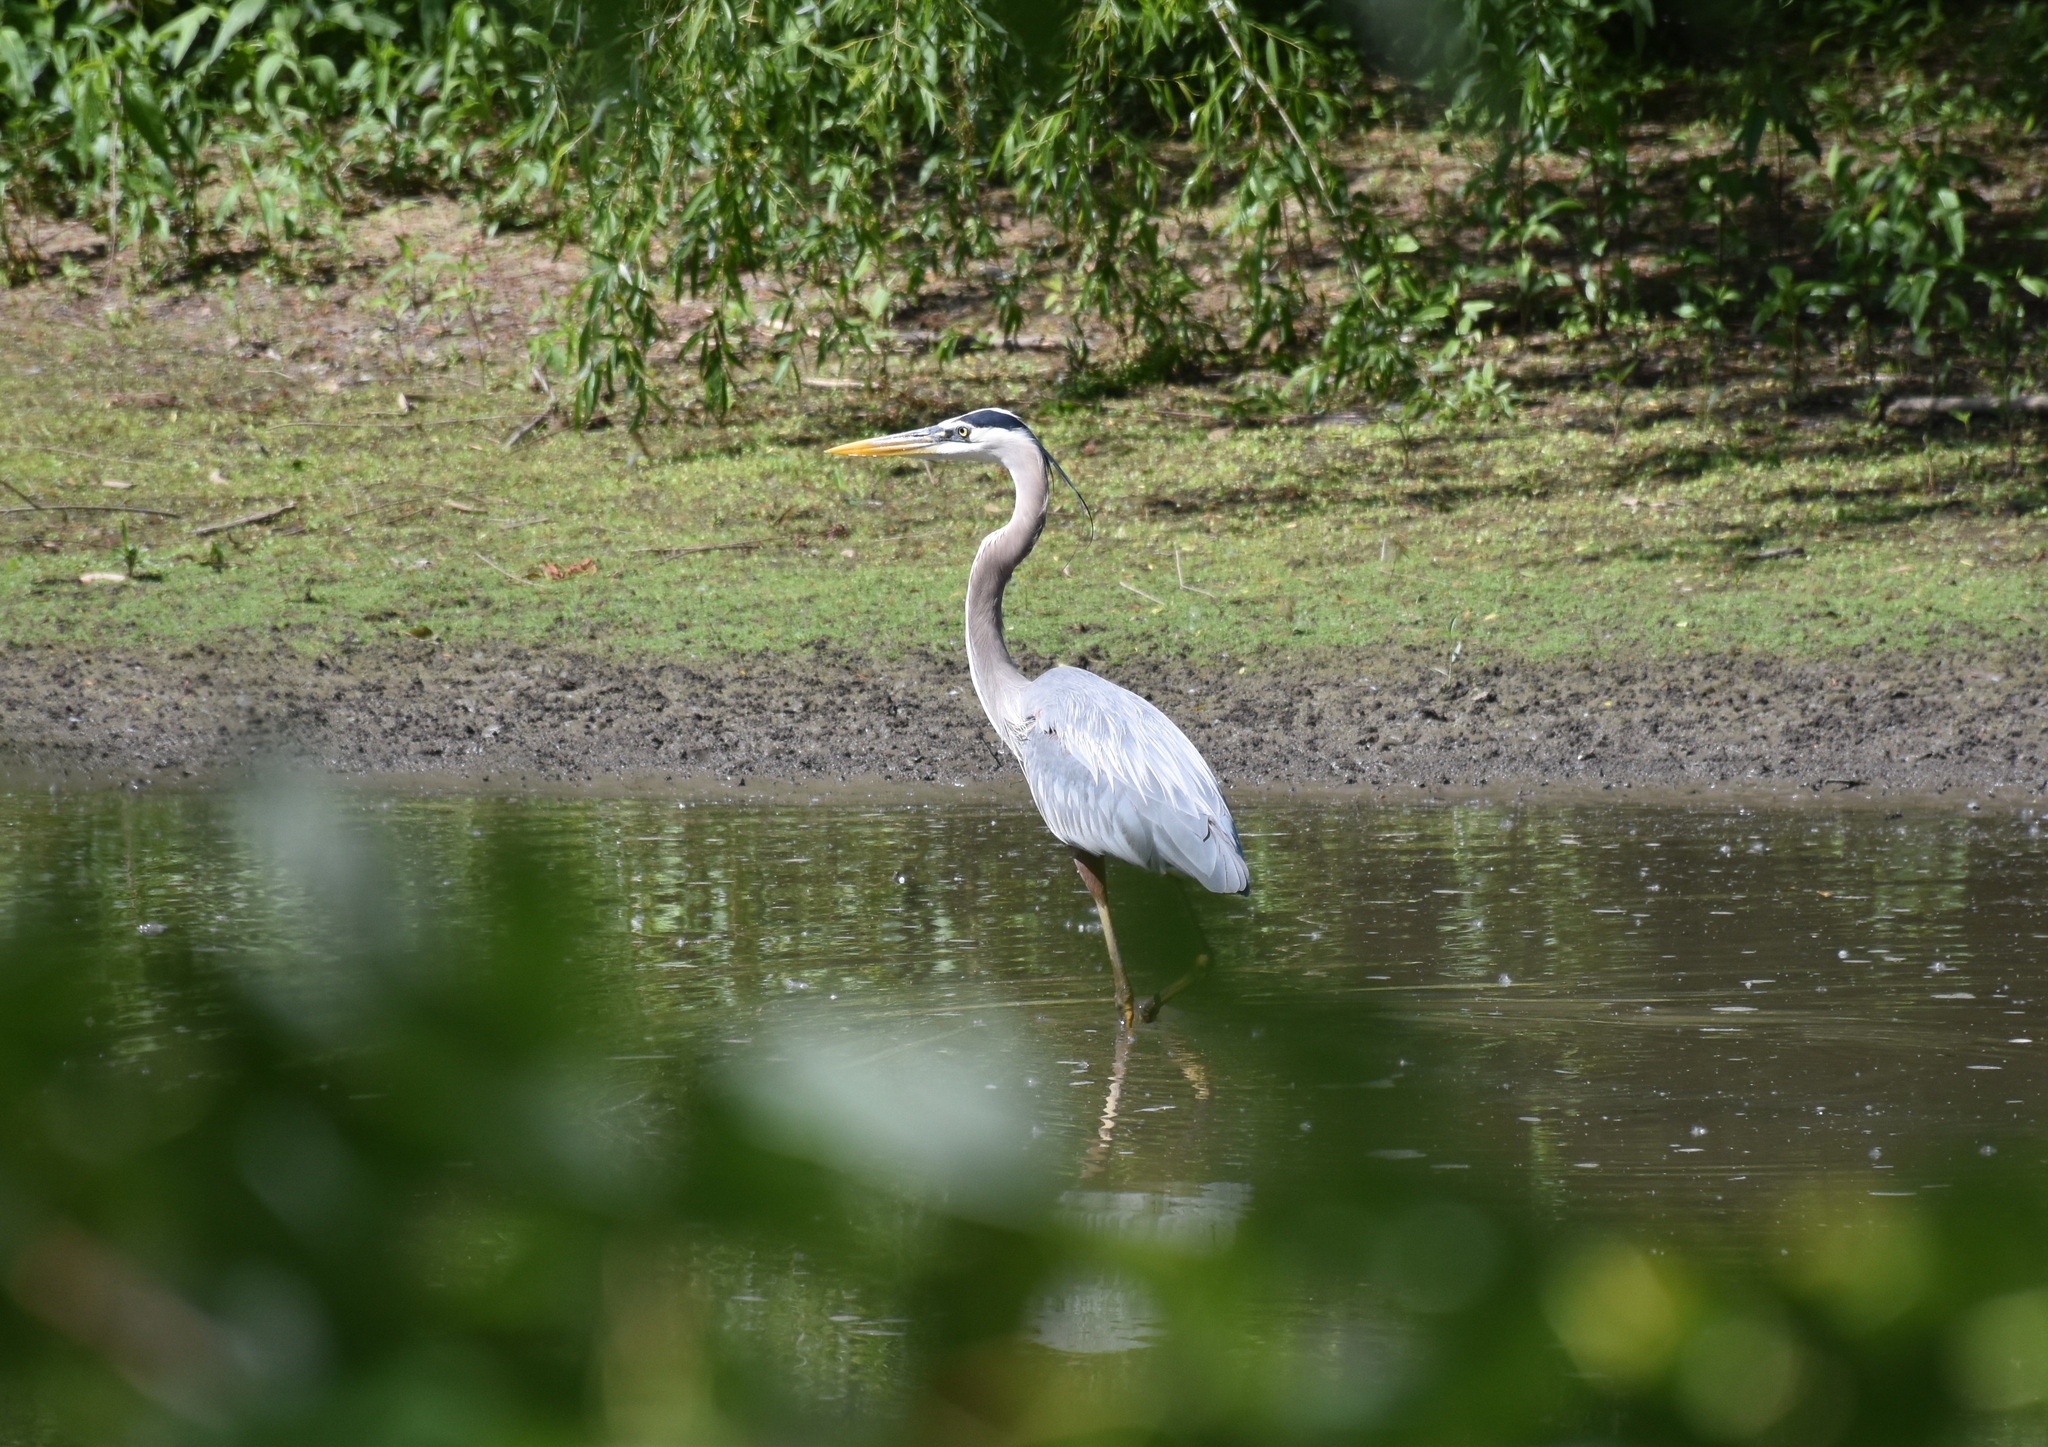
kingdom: Animalia
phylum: Chordata
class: Aves
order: Pelecaniformes
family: Ardeidae
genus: Ardea
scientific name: Ardea herodias
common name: Great blue heron
